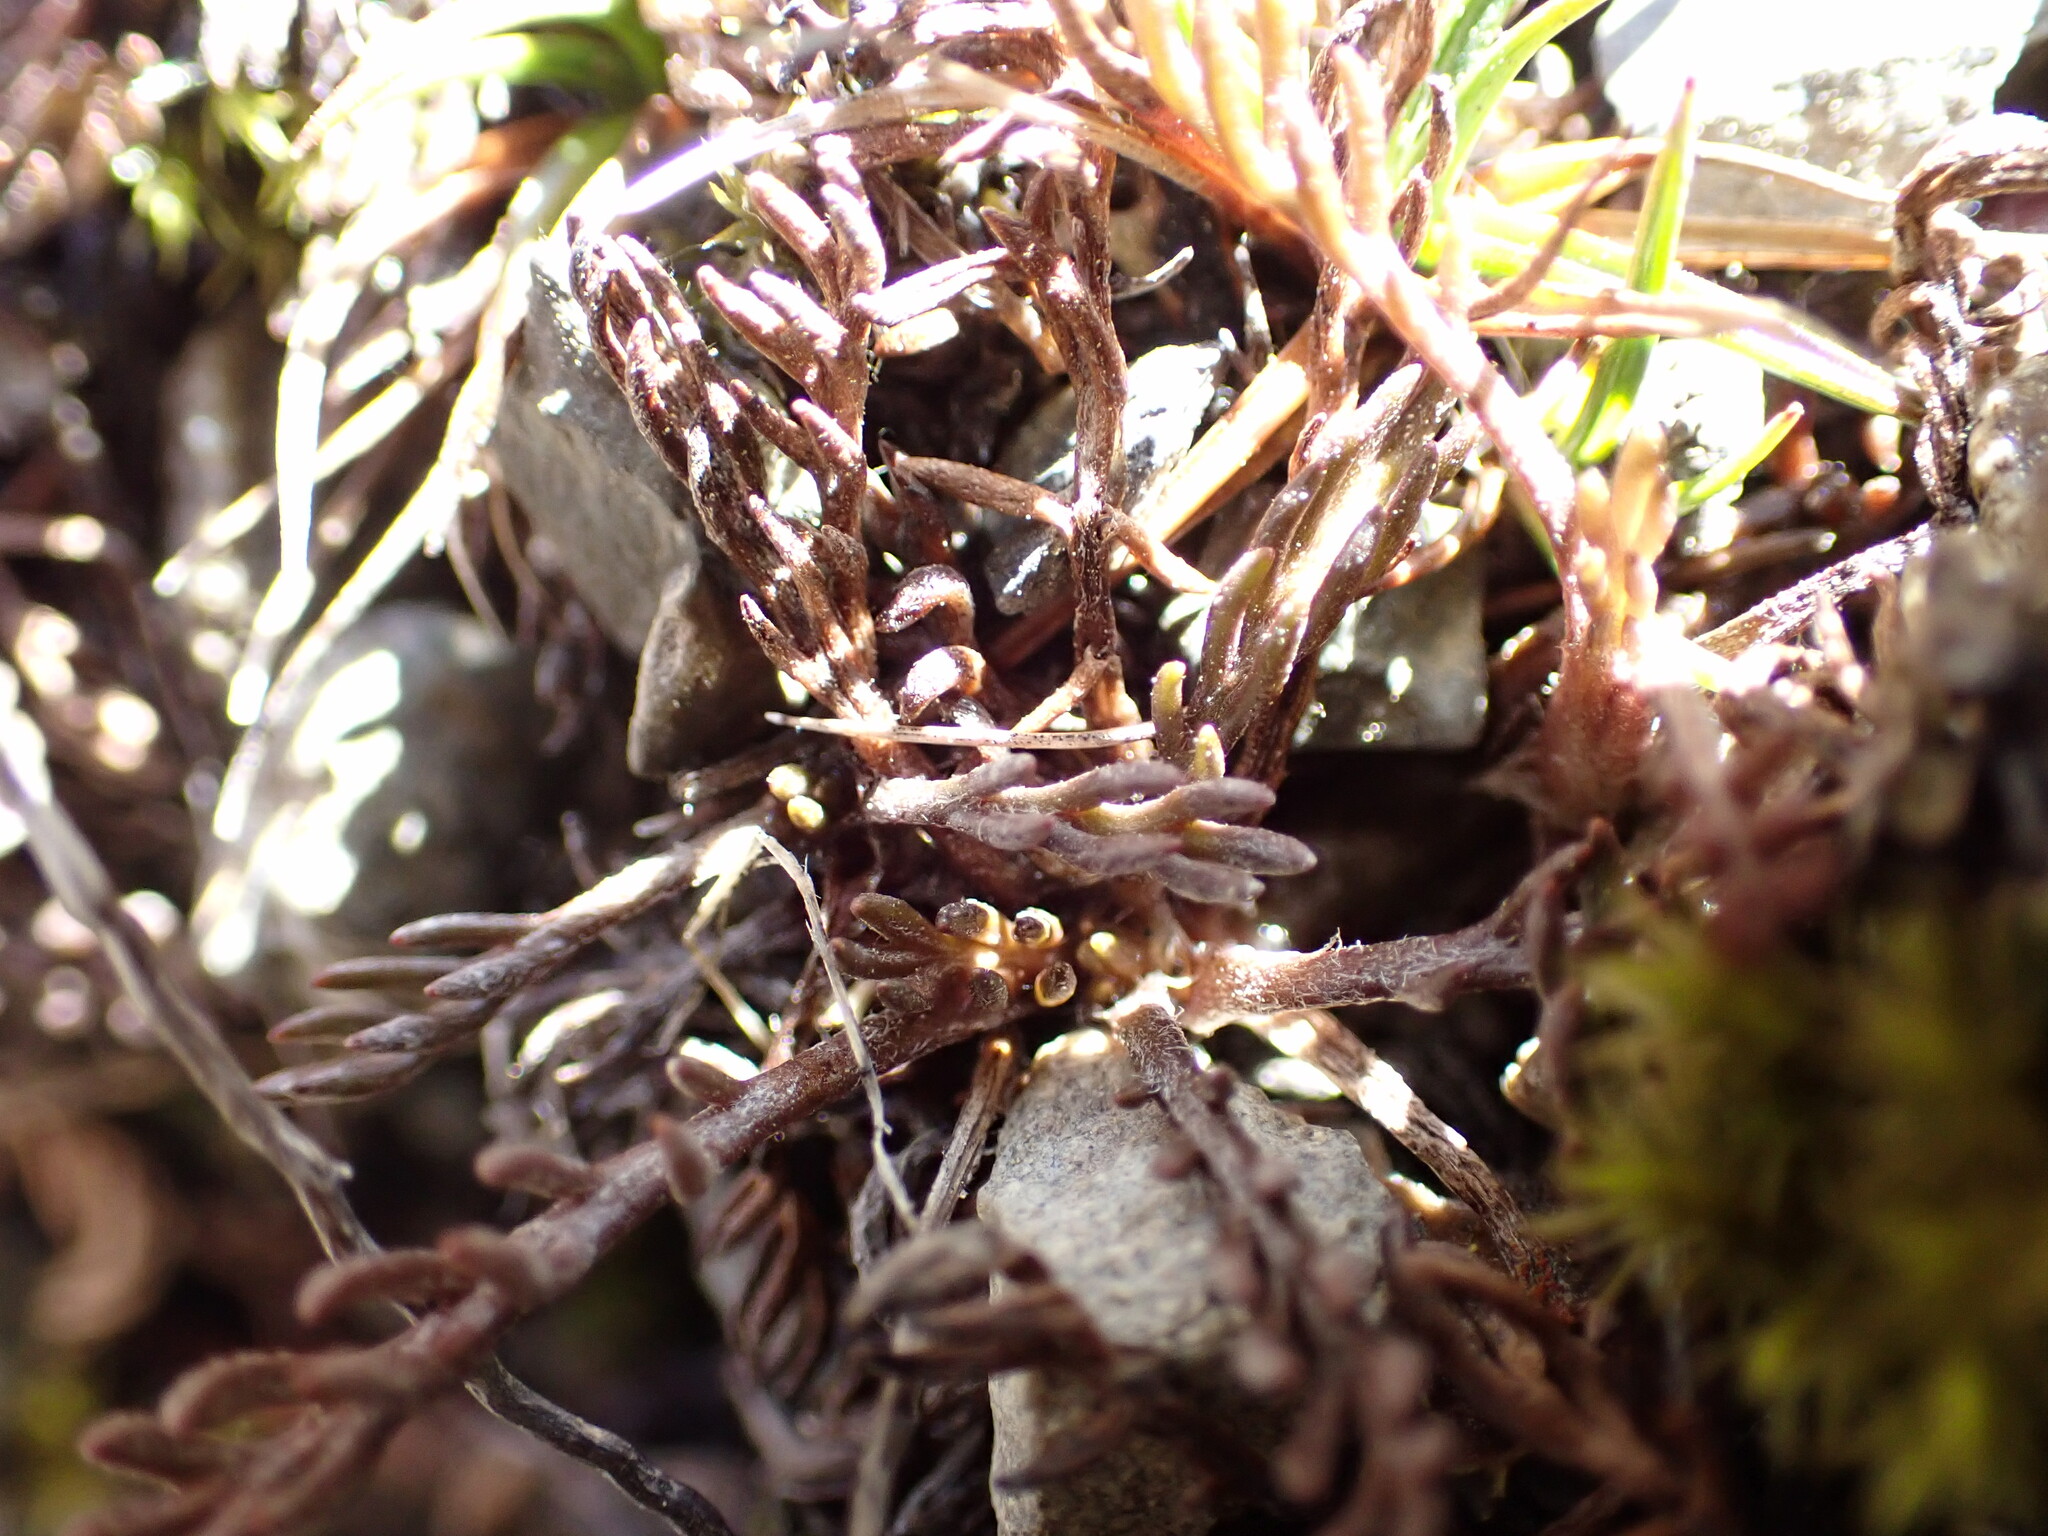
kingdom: Plantae
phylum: Tracheophyta
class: Magnoliopsida
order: Asterales
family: Asteraceae
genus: Leptinella
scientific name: Leptinella pectinata
